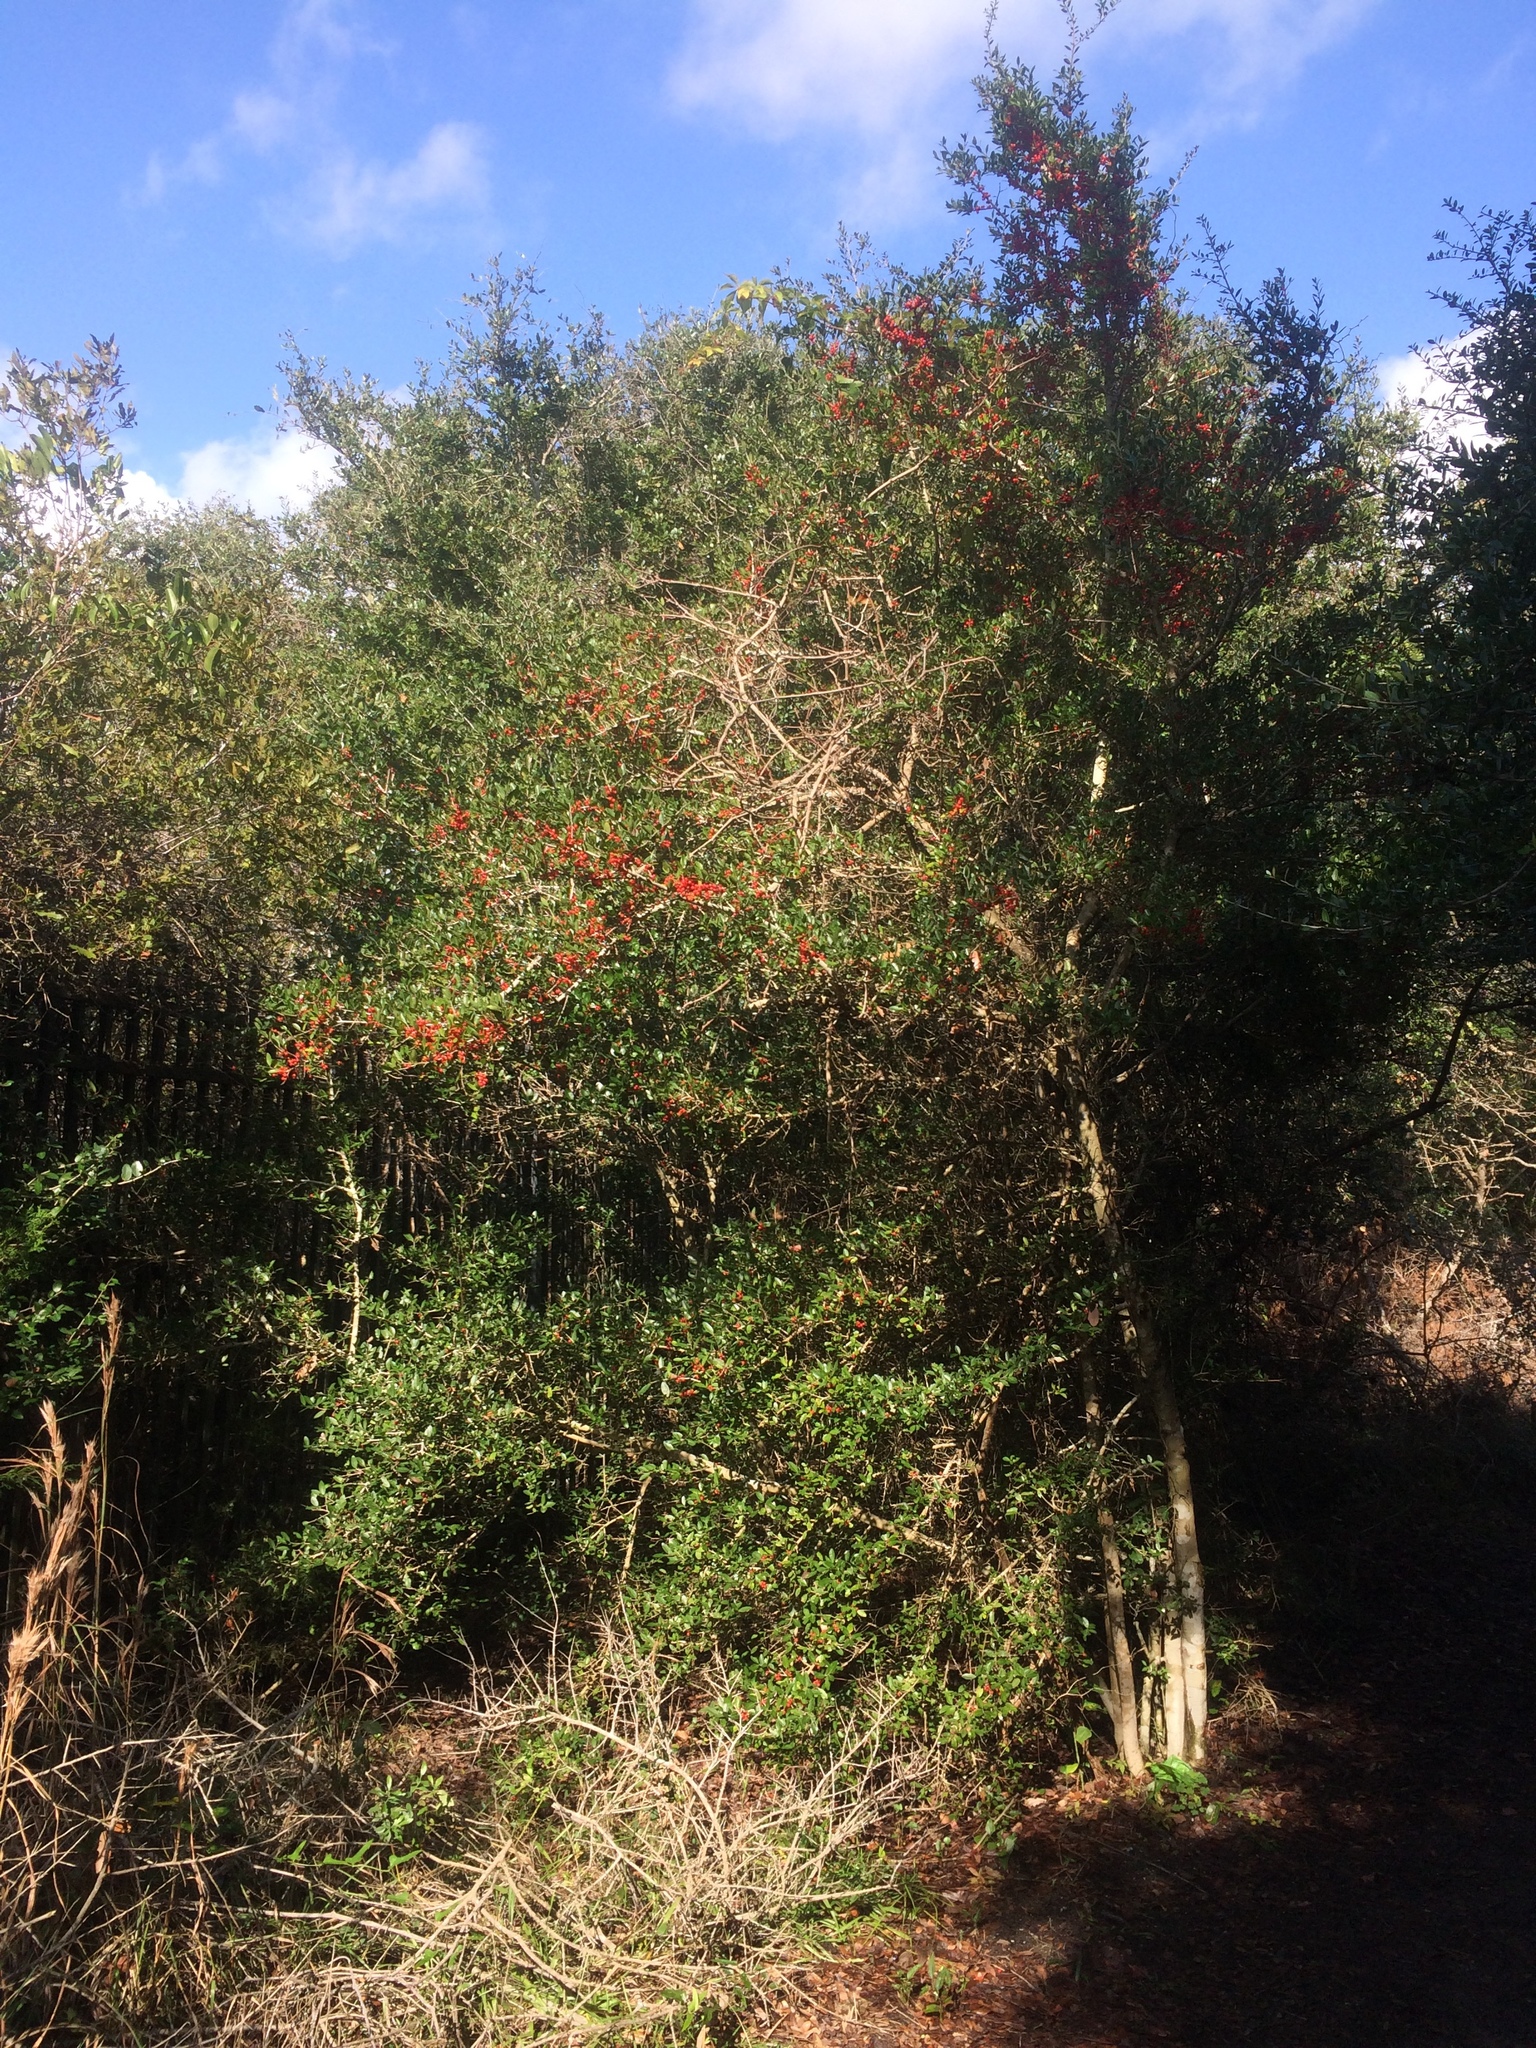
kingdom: Plantae
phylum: Tracheophyta
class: Magnoliopsida
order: Aquifoliales
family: Aquifoliaceae
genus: Ilex
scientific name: Ilex vomitoria
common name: Yaupon holly
